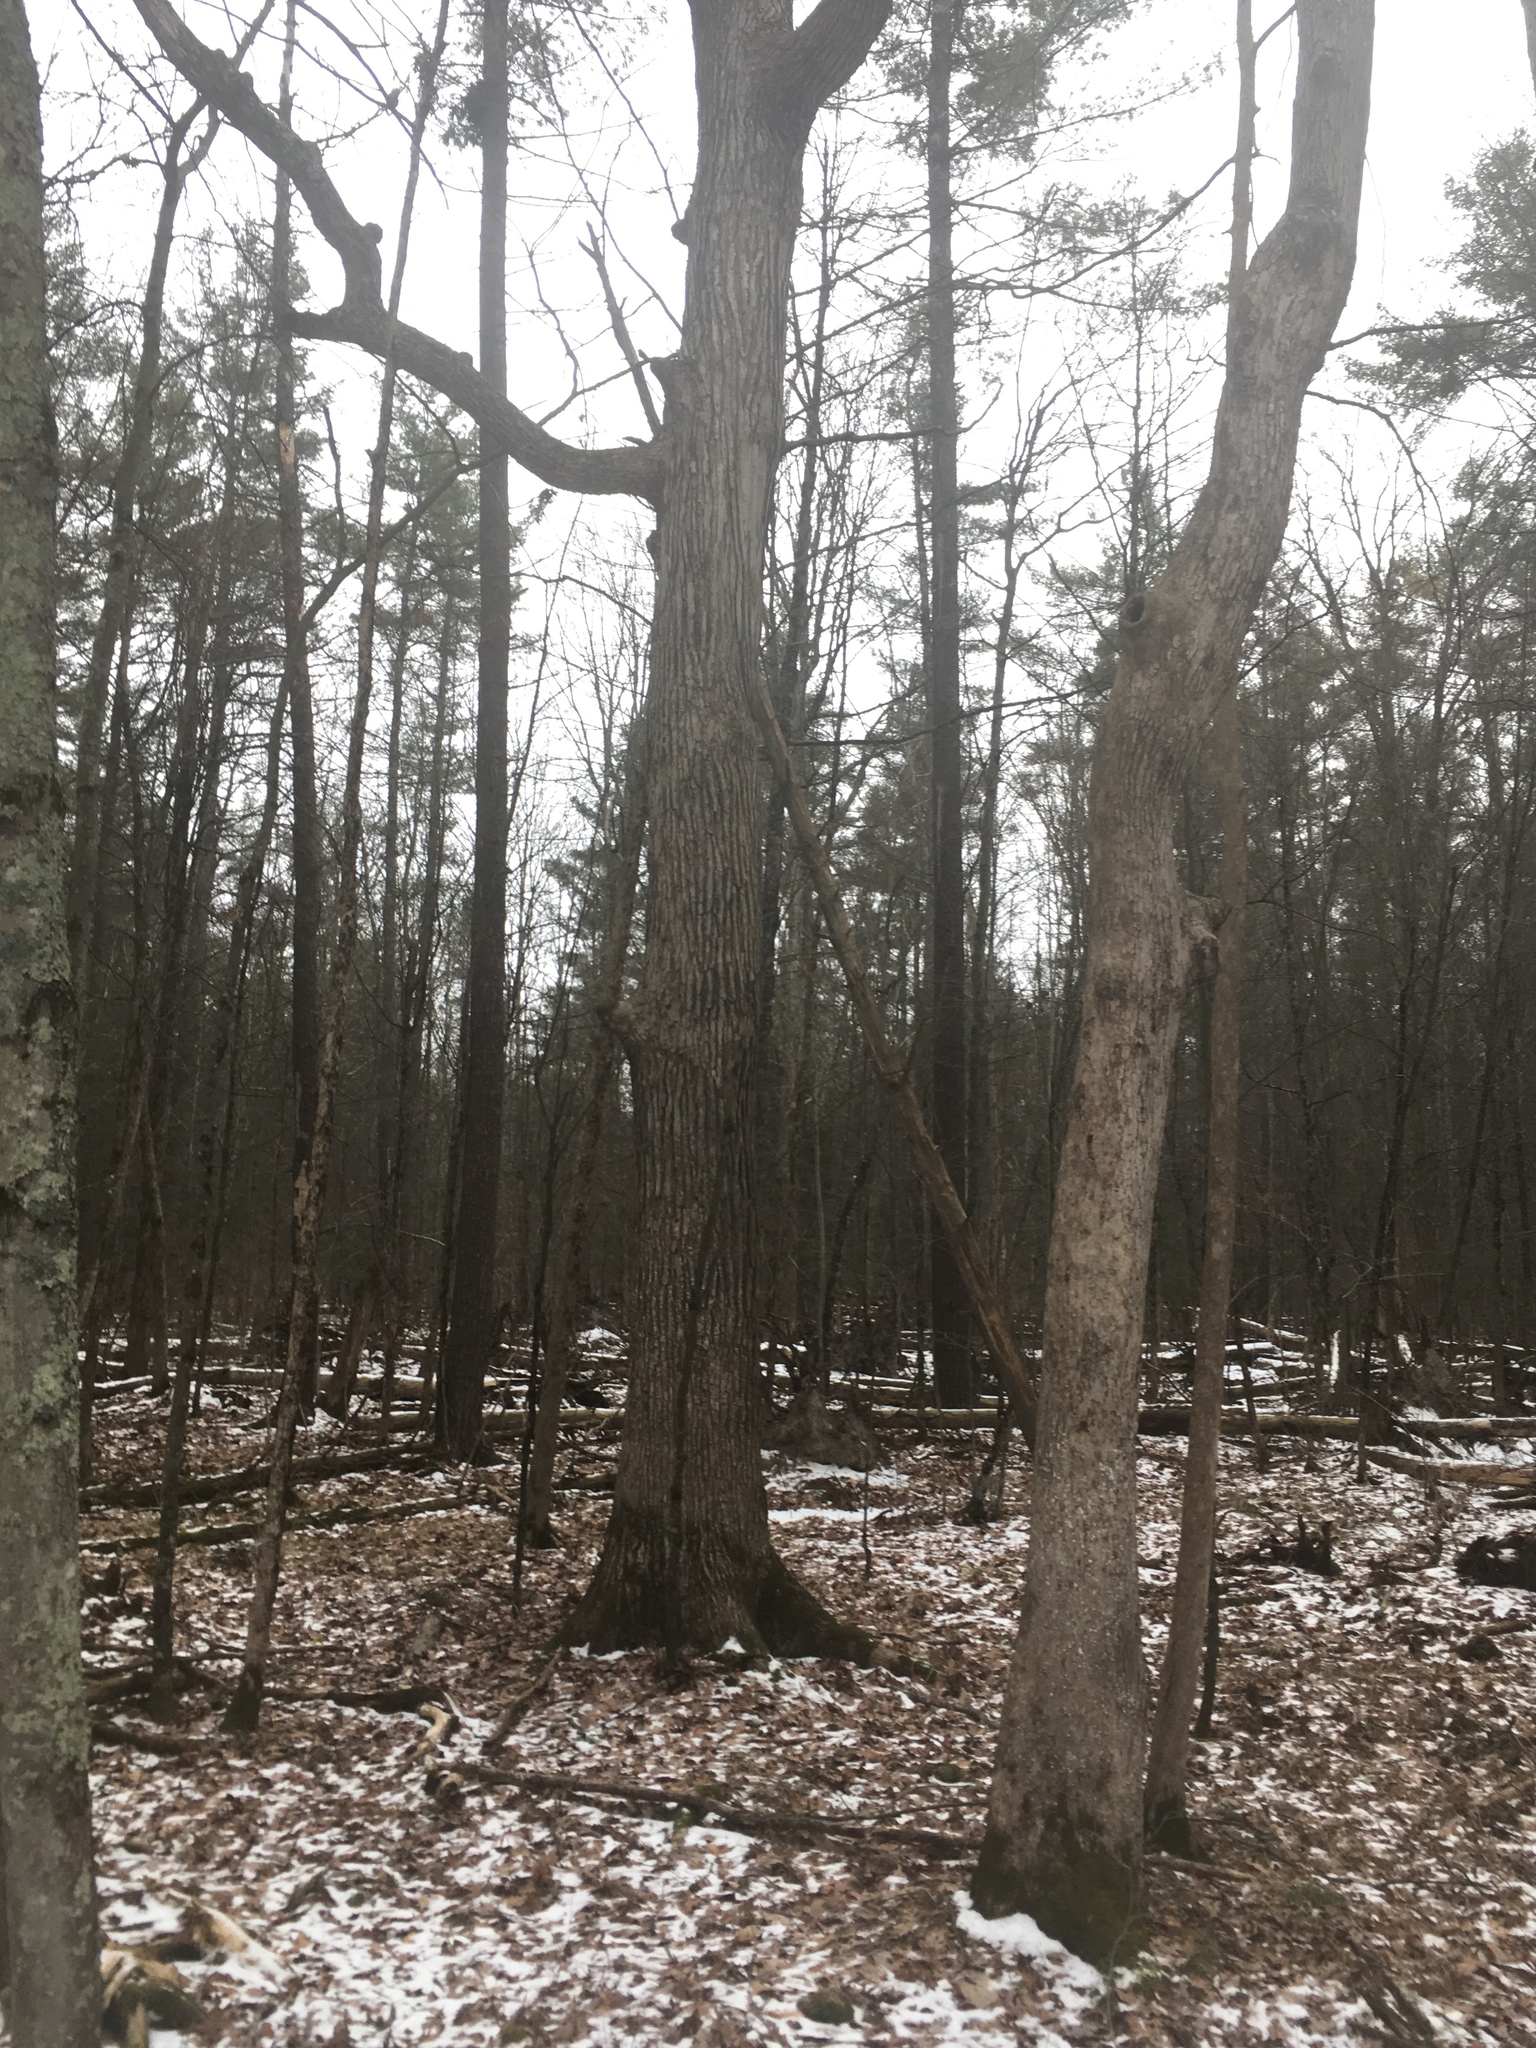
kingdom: Plantae
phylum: Tracheophyta
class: Magnoliopsida
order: Fagales
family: Fagaceae
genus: Quercus
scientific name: Quercus macrocarpa
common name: Bur oak
